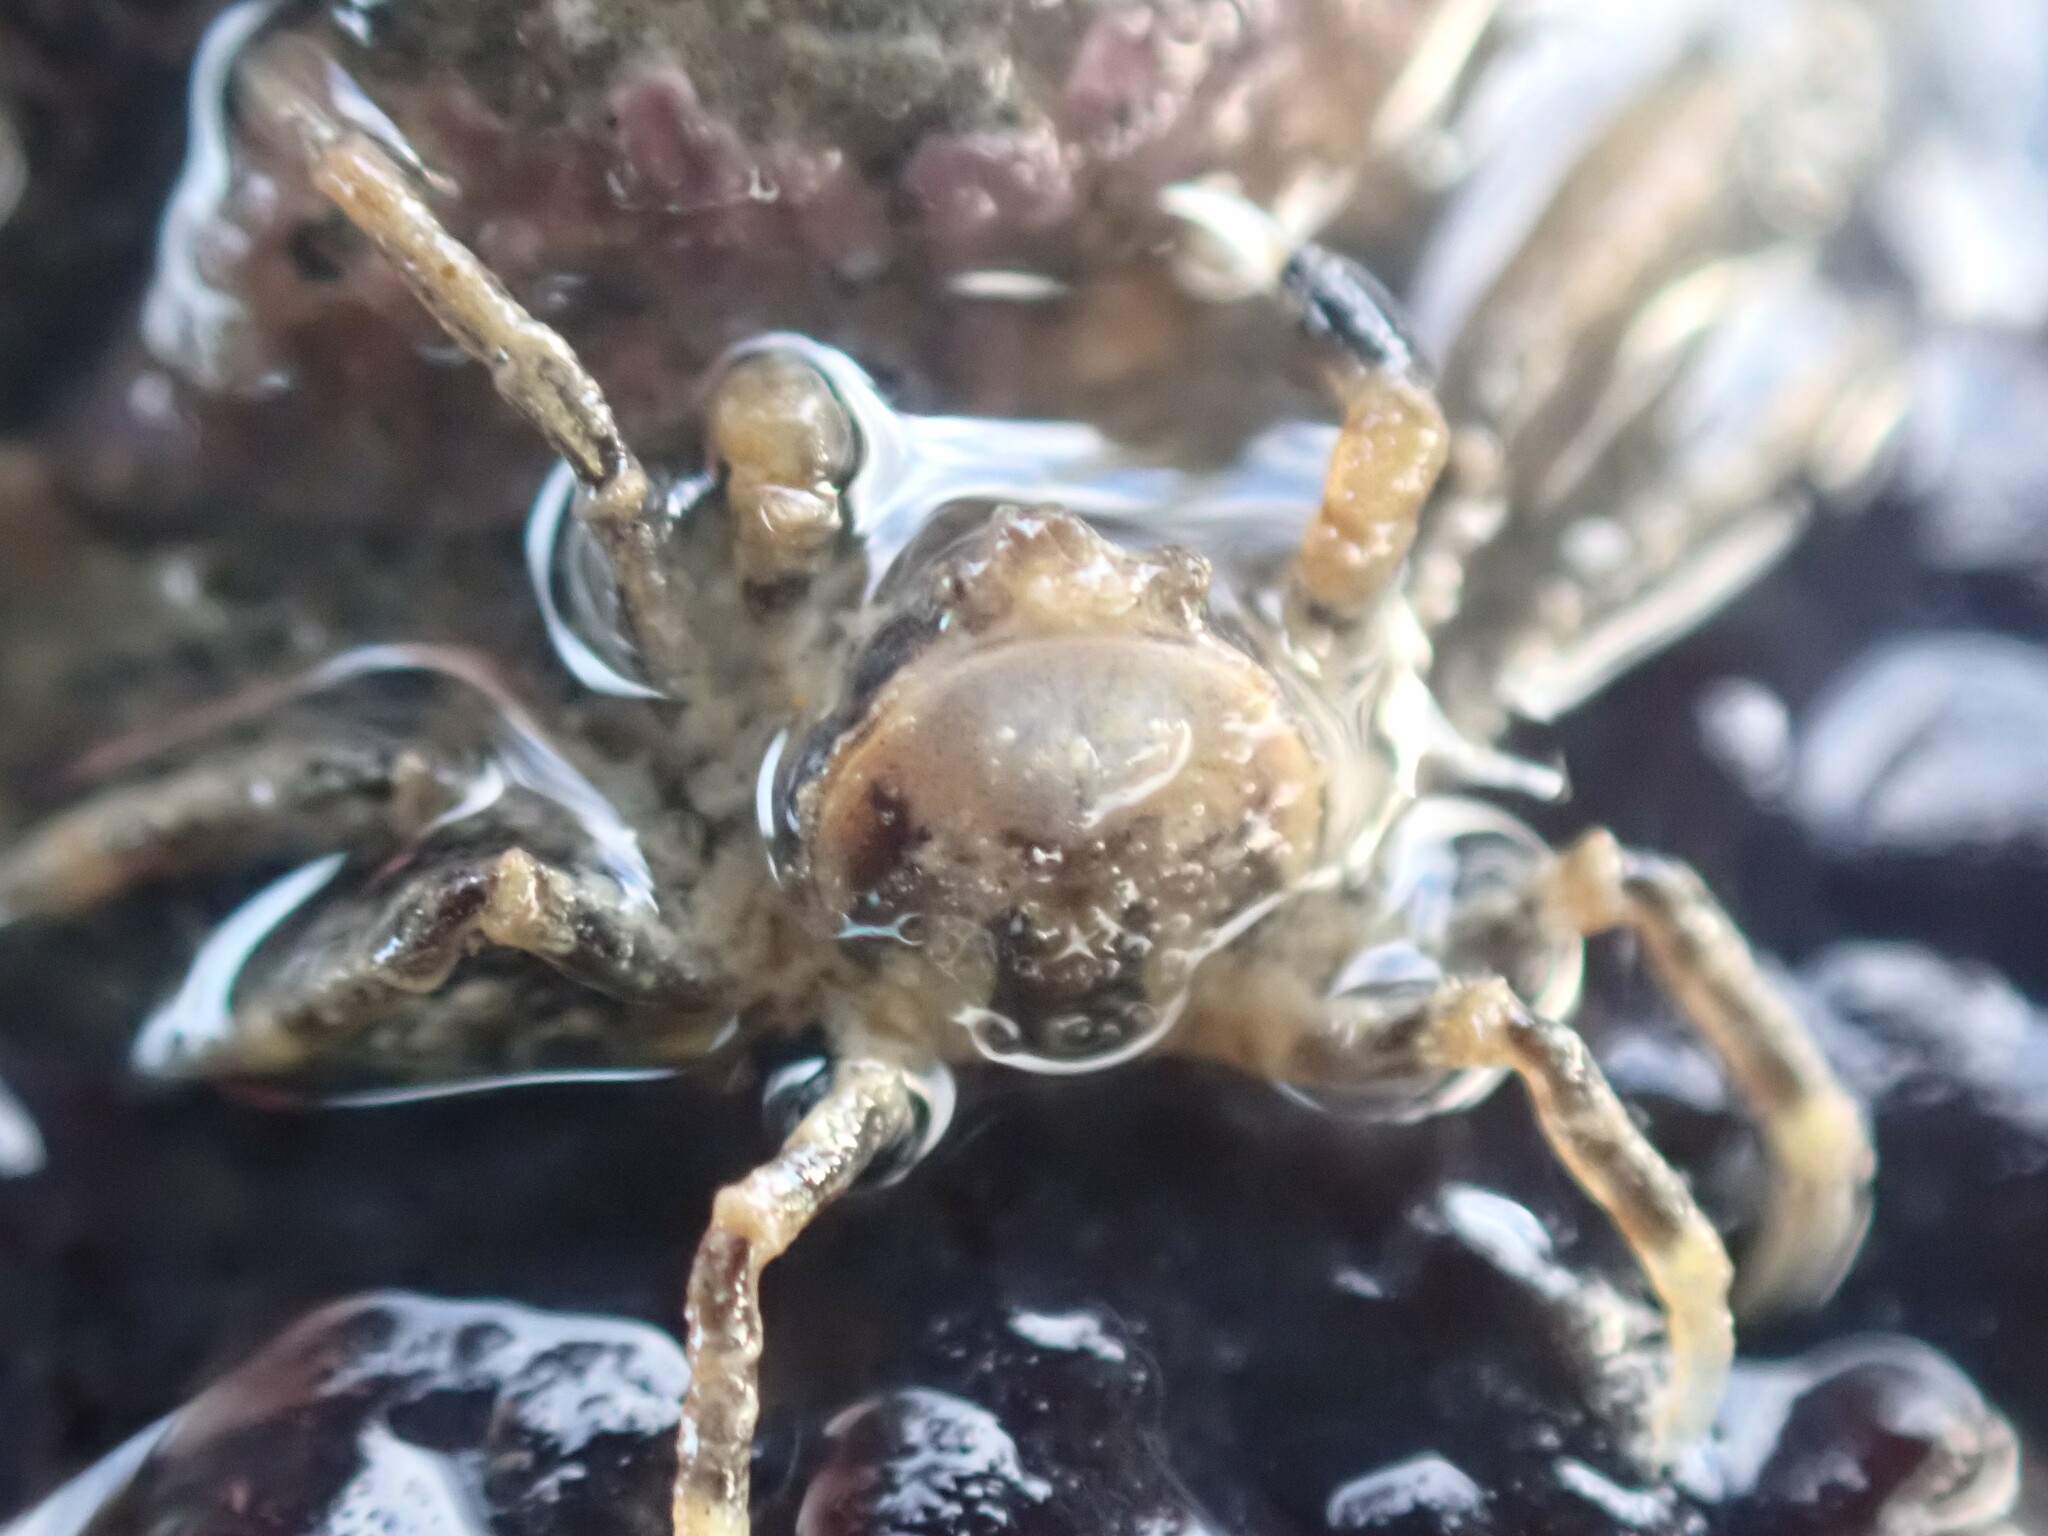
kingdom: Animalia
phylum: Arthropoda
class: Malacostraca
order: Decapoda
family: Hymenosomatidae
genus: Halicarcinus
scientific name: Halicarcinus quoyi
